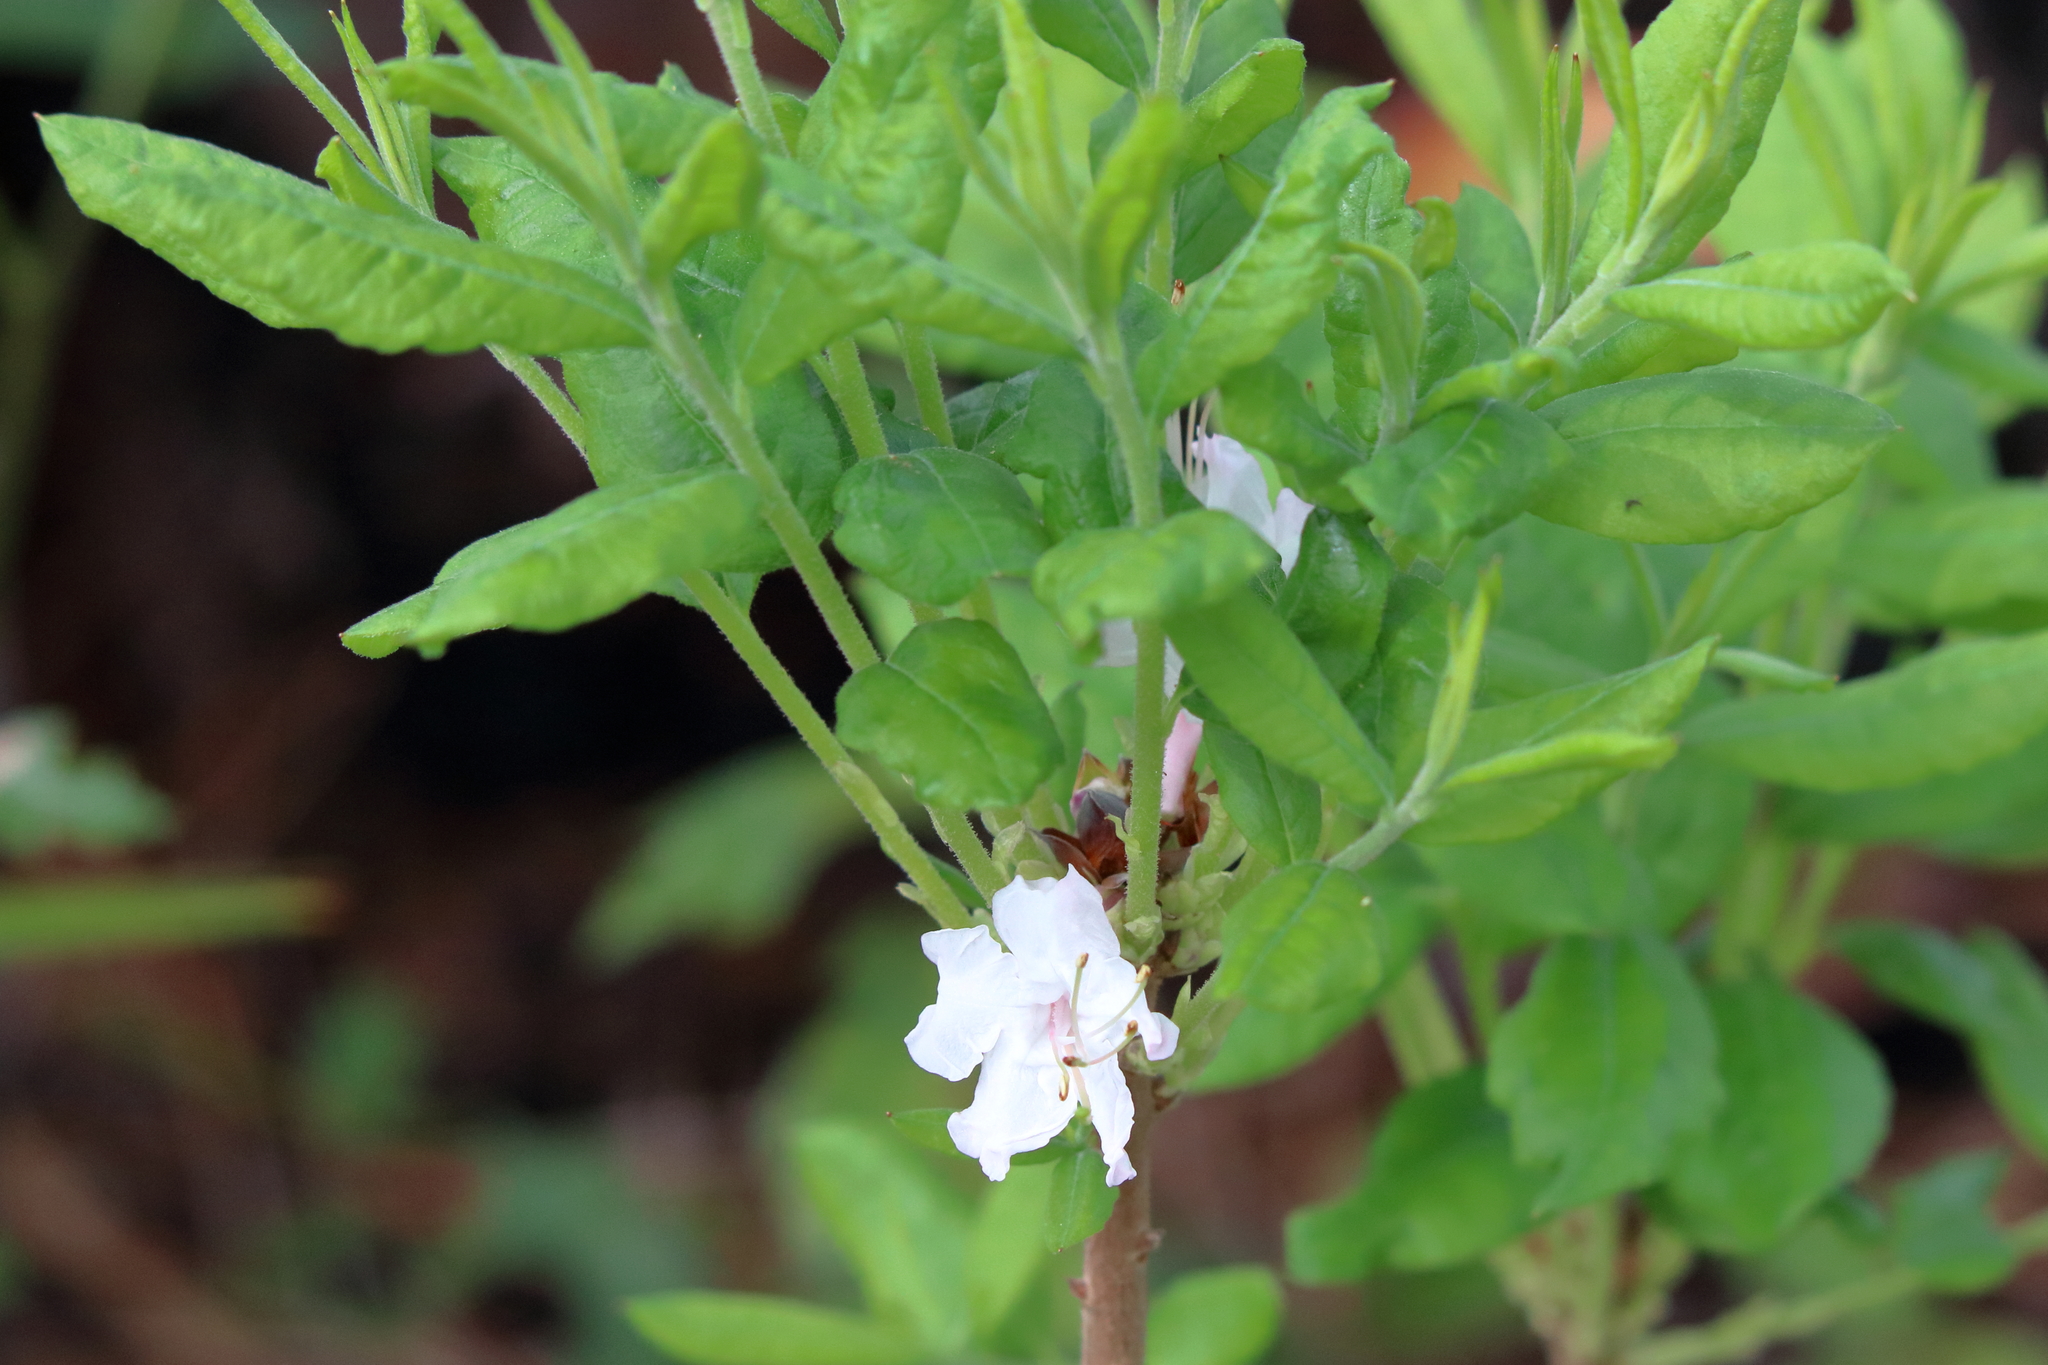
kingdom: Plantae
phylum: Tracheophyta
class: Magnoliopsida
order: Ericales
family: Ericaceae
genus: Rhododendron
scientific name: Rhododendron canescens
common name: Mountain azalea
